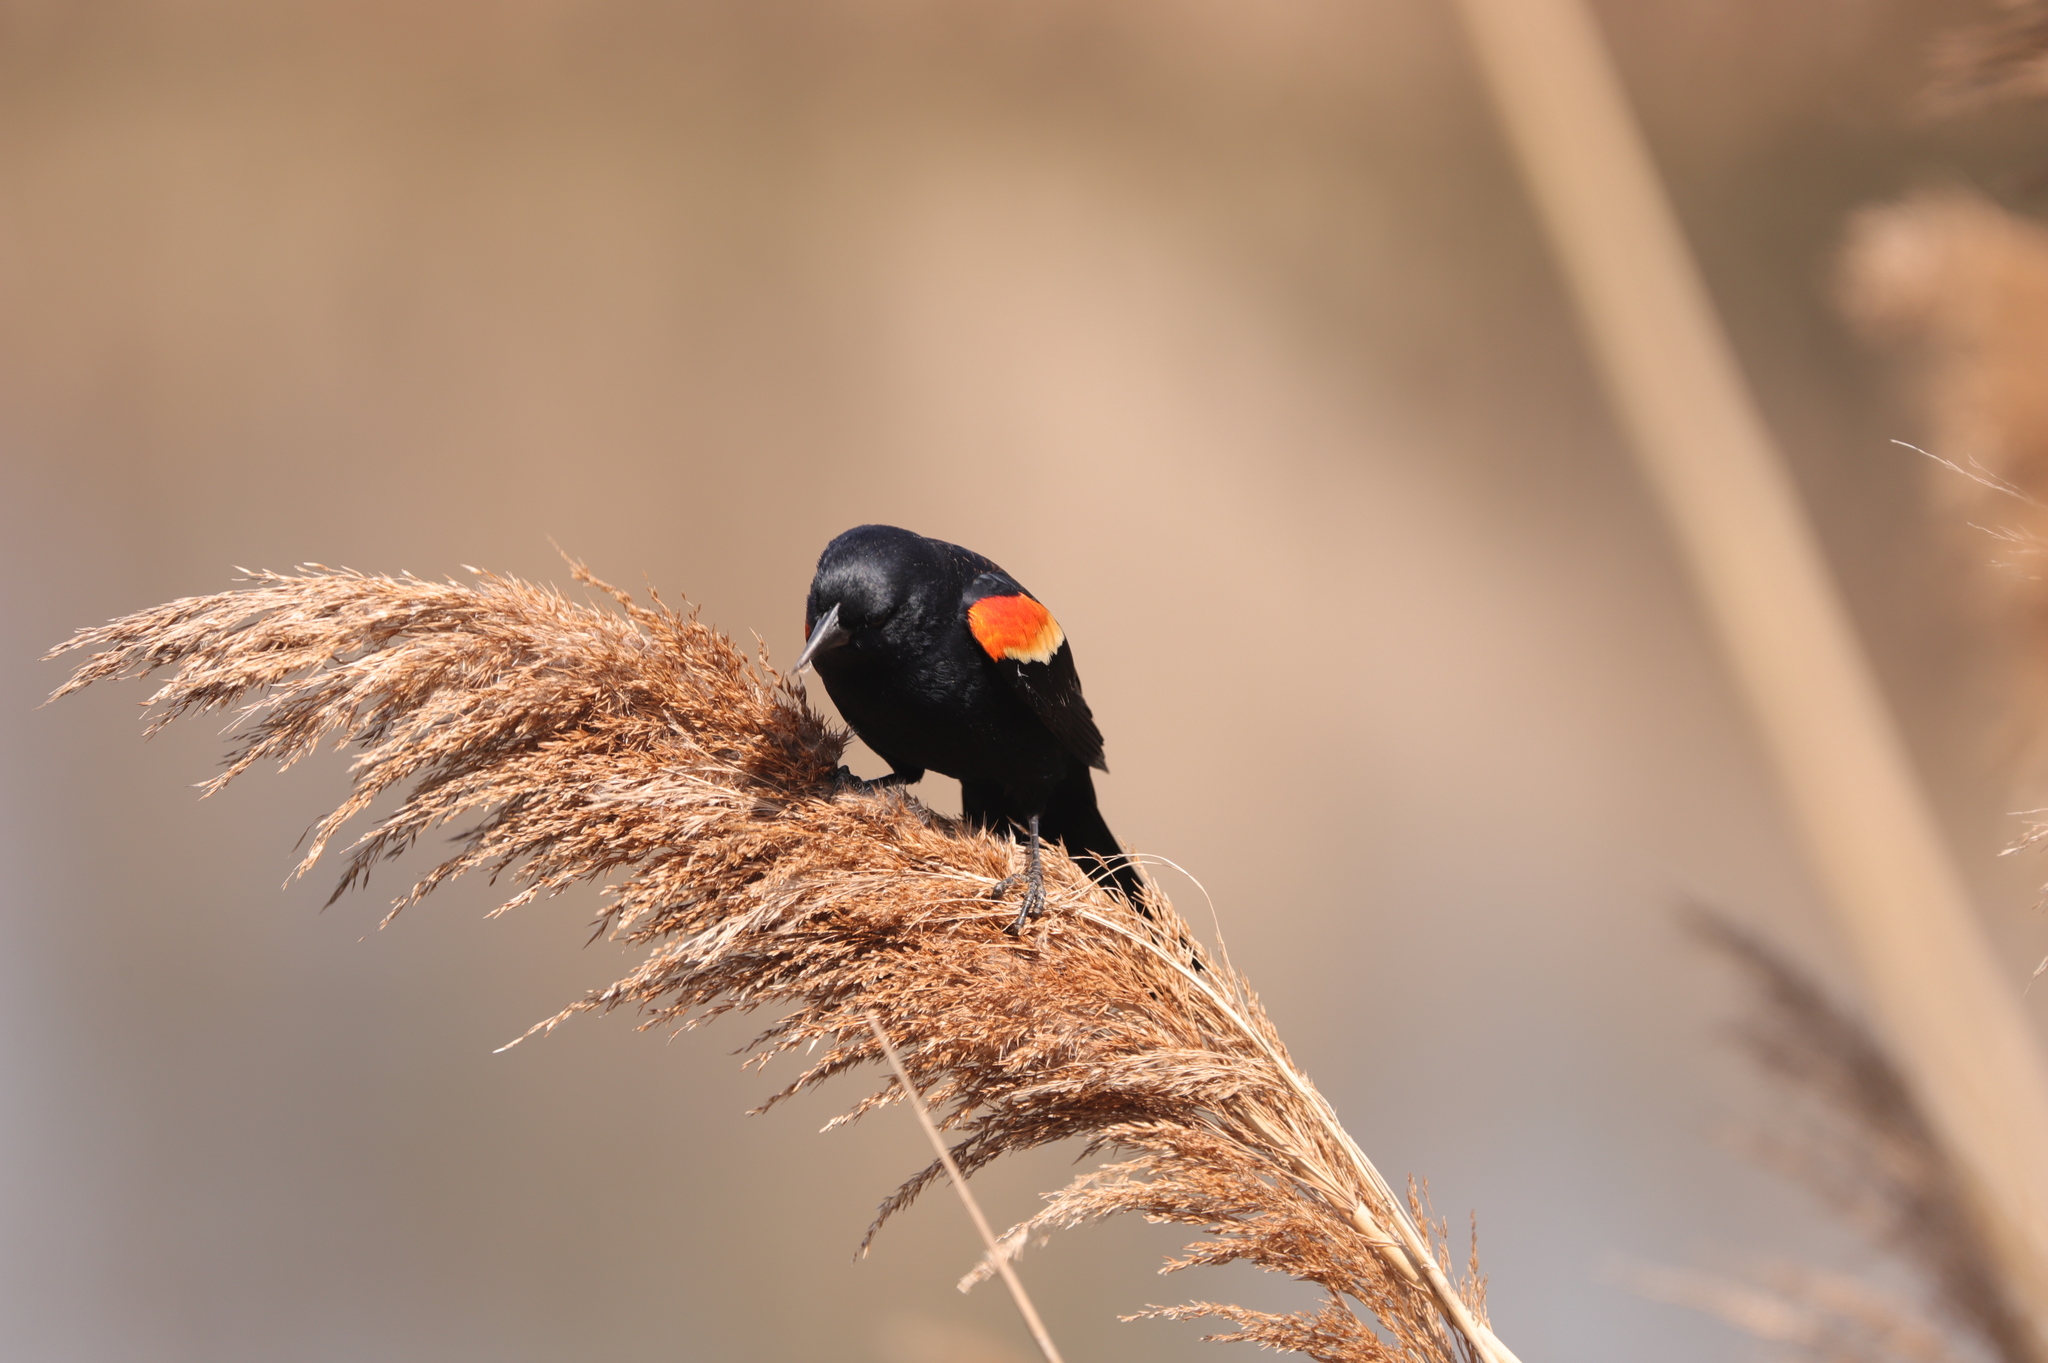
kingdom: Animalia
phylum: Chordata
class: Aves
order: Passeriformes
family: Icteridae
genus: Agelaius
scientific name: Agelaius phoeniceus
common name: Red-winged blackbird
